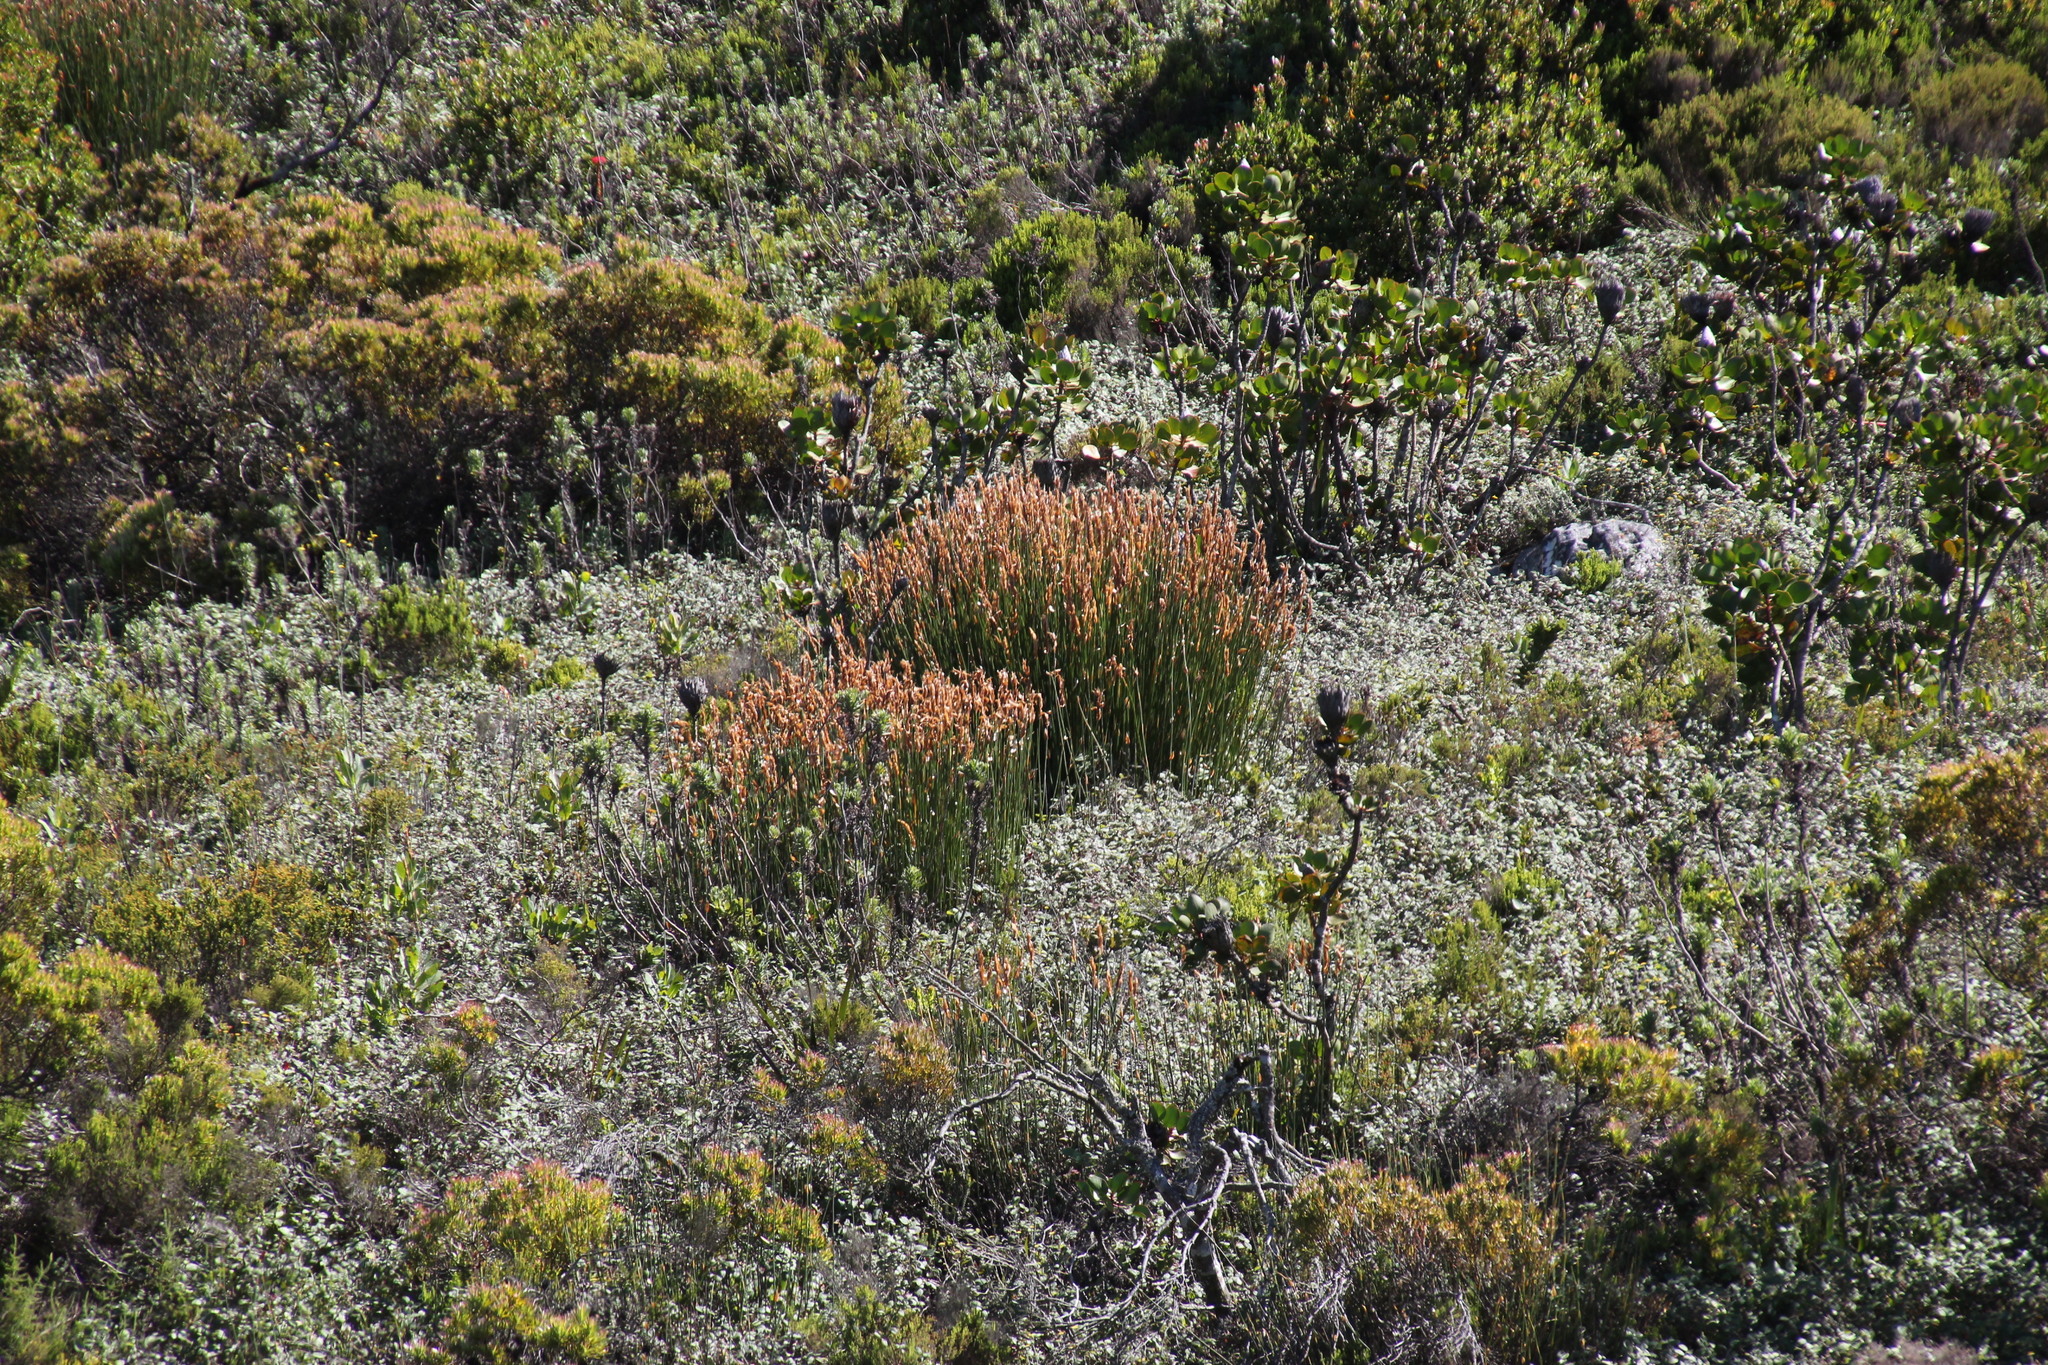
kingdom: Plantae
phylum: Tracheophyta
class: Liliopsida
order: Poales
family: Restionaceae
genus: Elegia
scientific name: Elegia mucronata
